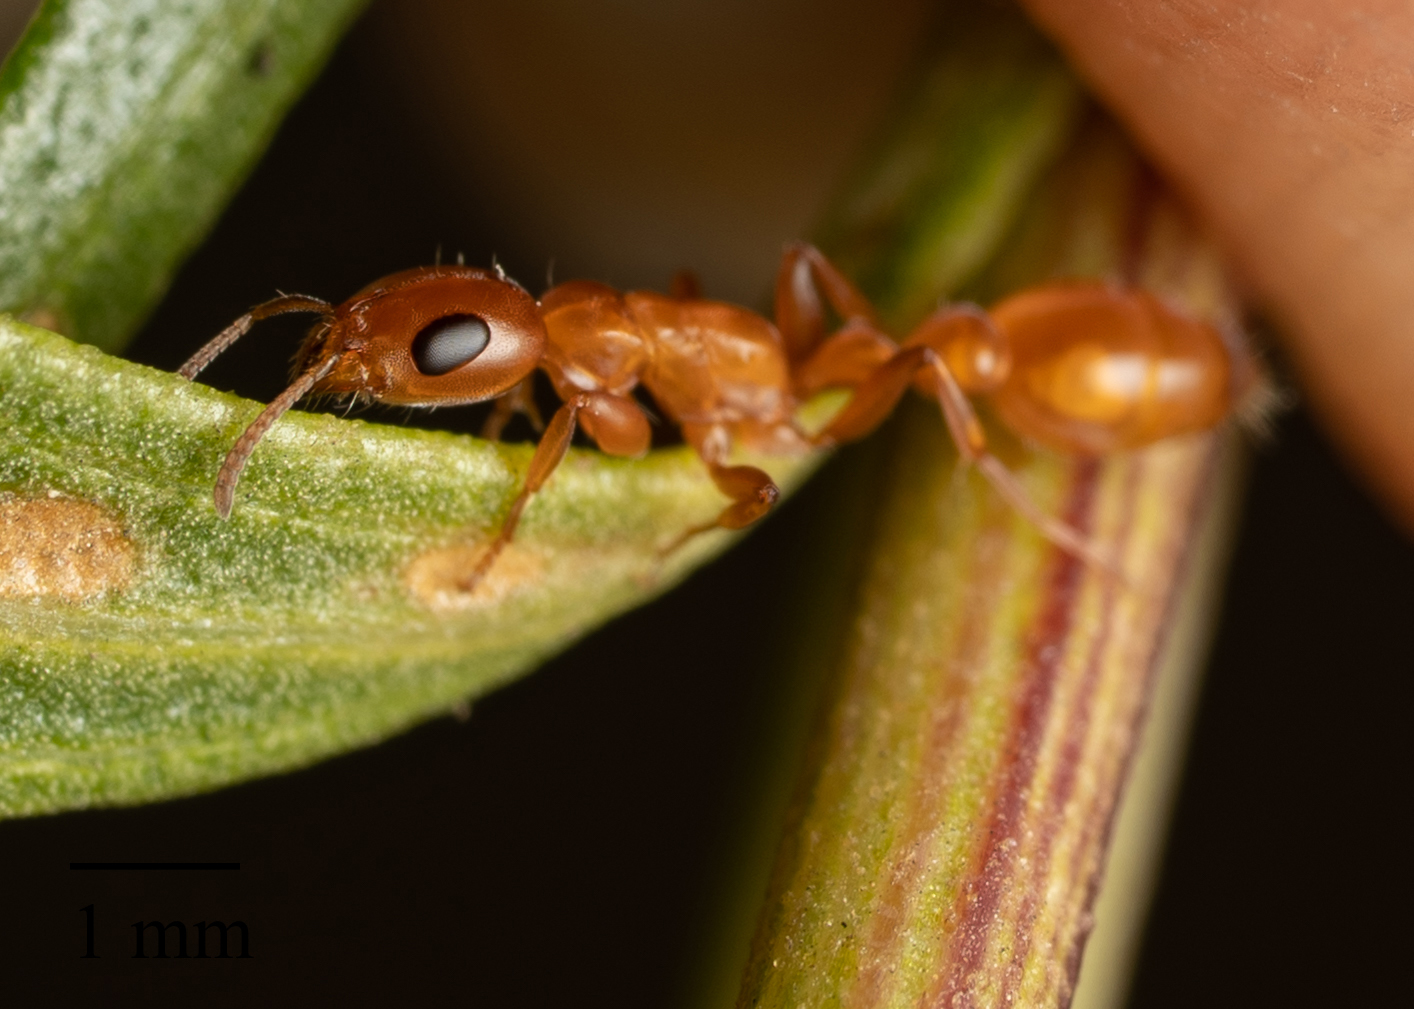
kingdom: Animalia
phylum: Arthropoda
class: Insecta
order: Hymenoptera
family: Formicidae
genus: Pseudomyrmex
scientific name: Pseudomyrmex apache
